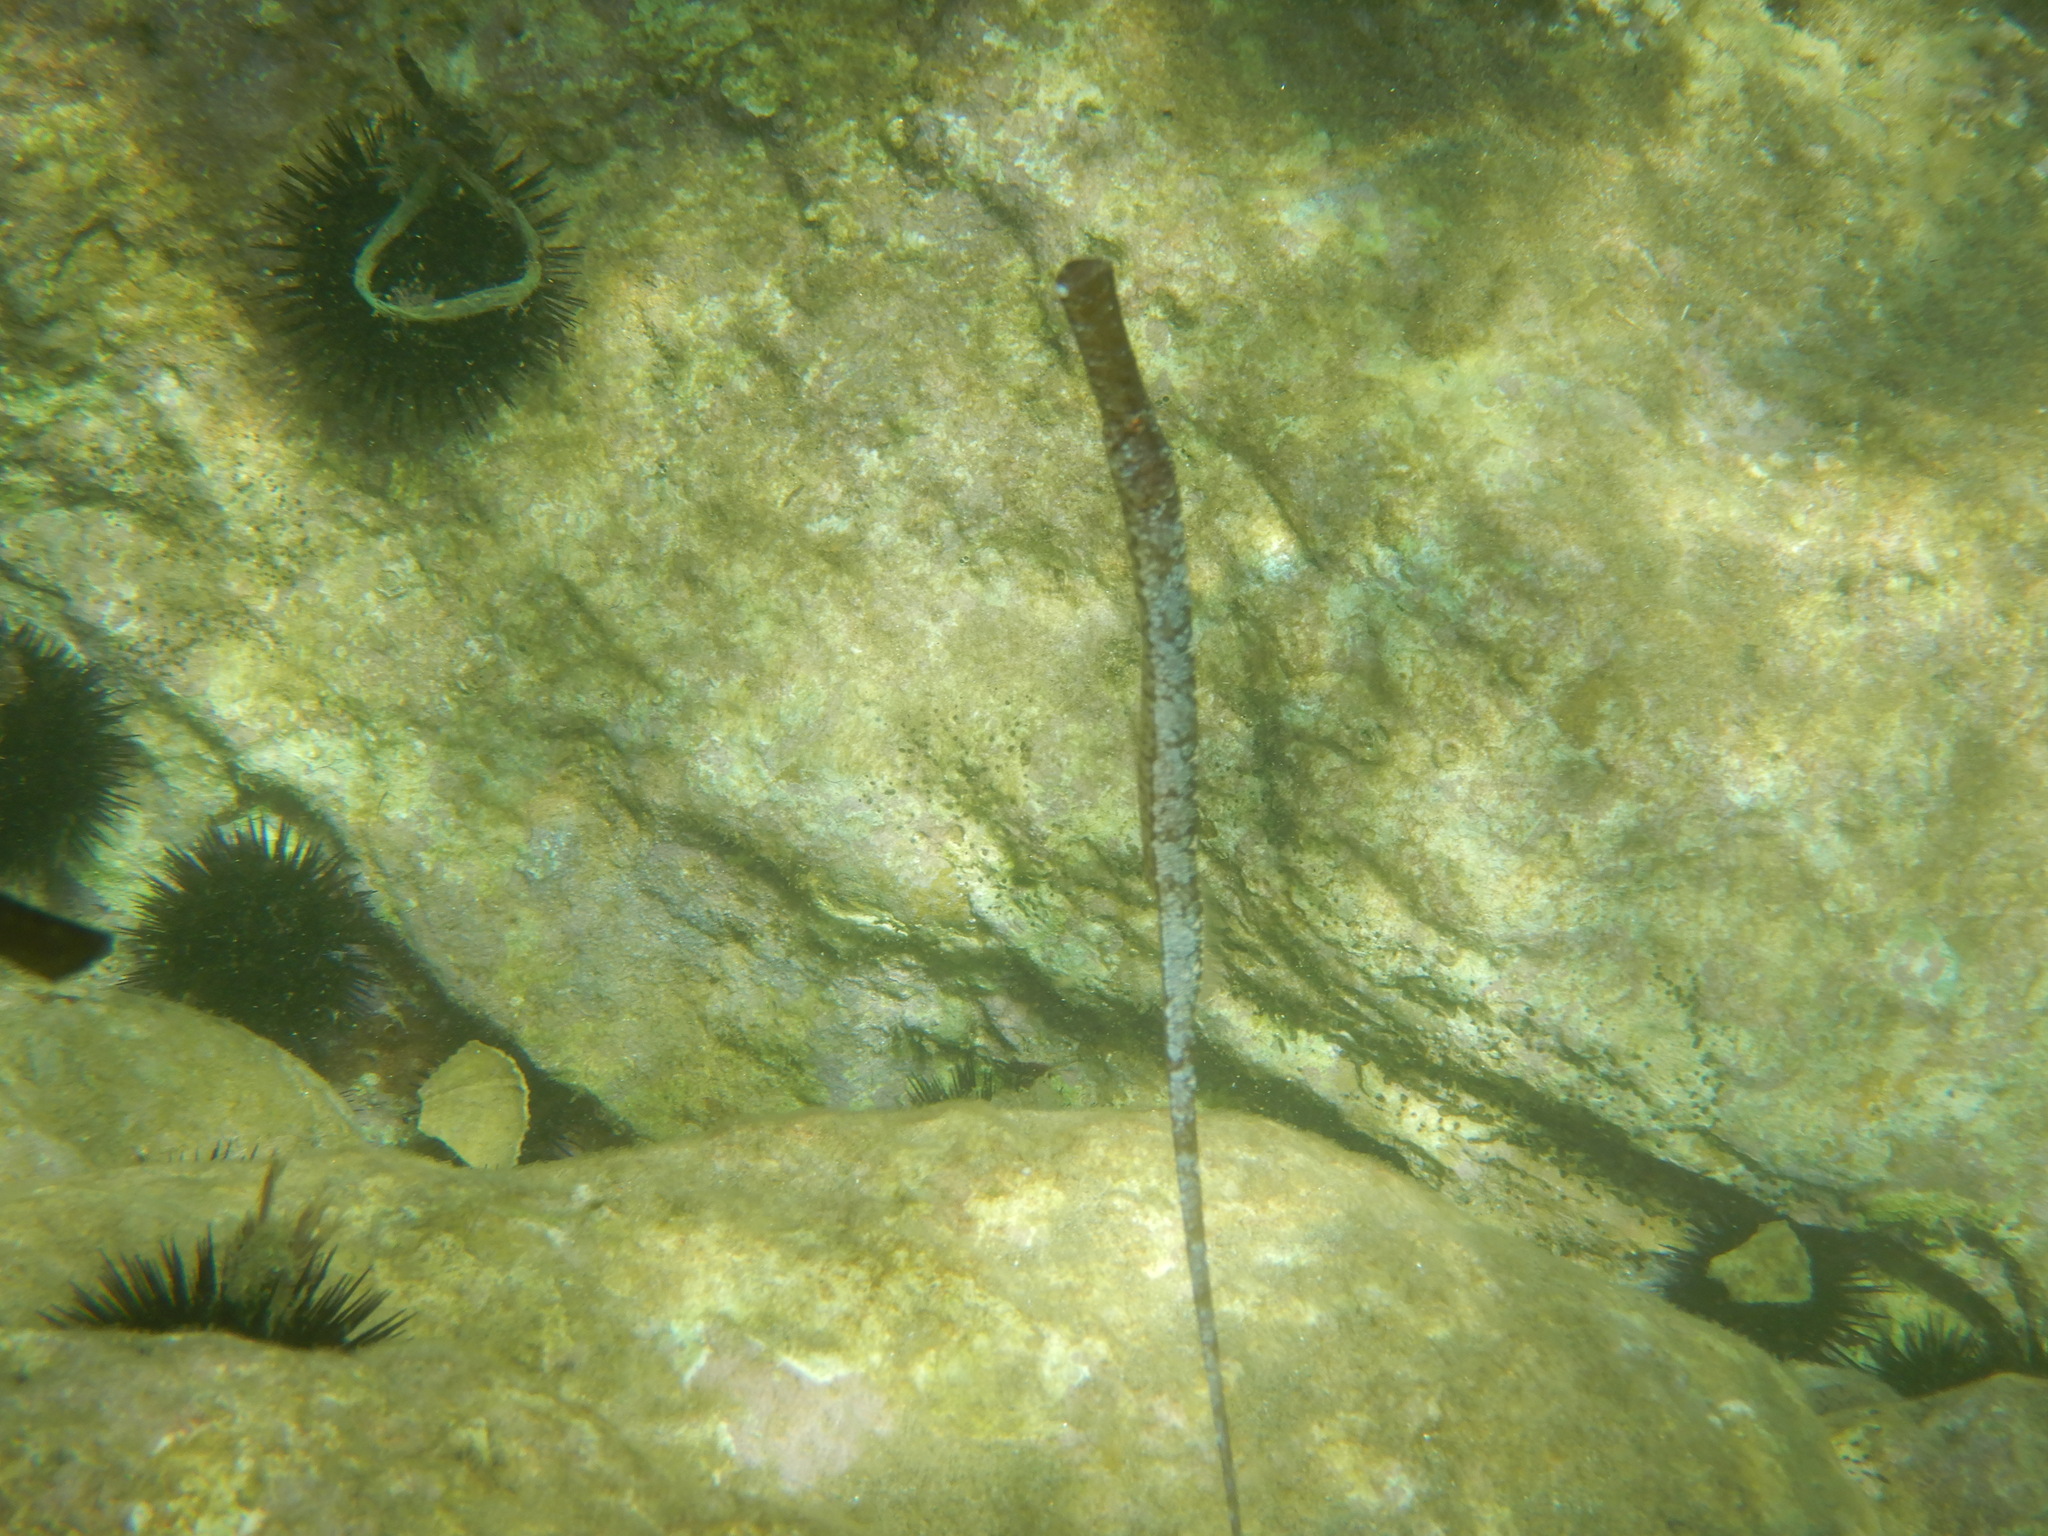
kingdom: Animalia
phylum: Chordata
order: Syngnathiformes
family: Syngnathidae
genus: Syngnathus
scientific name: Syngnathus typhle
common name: Deep-snouted pipefish
